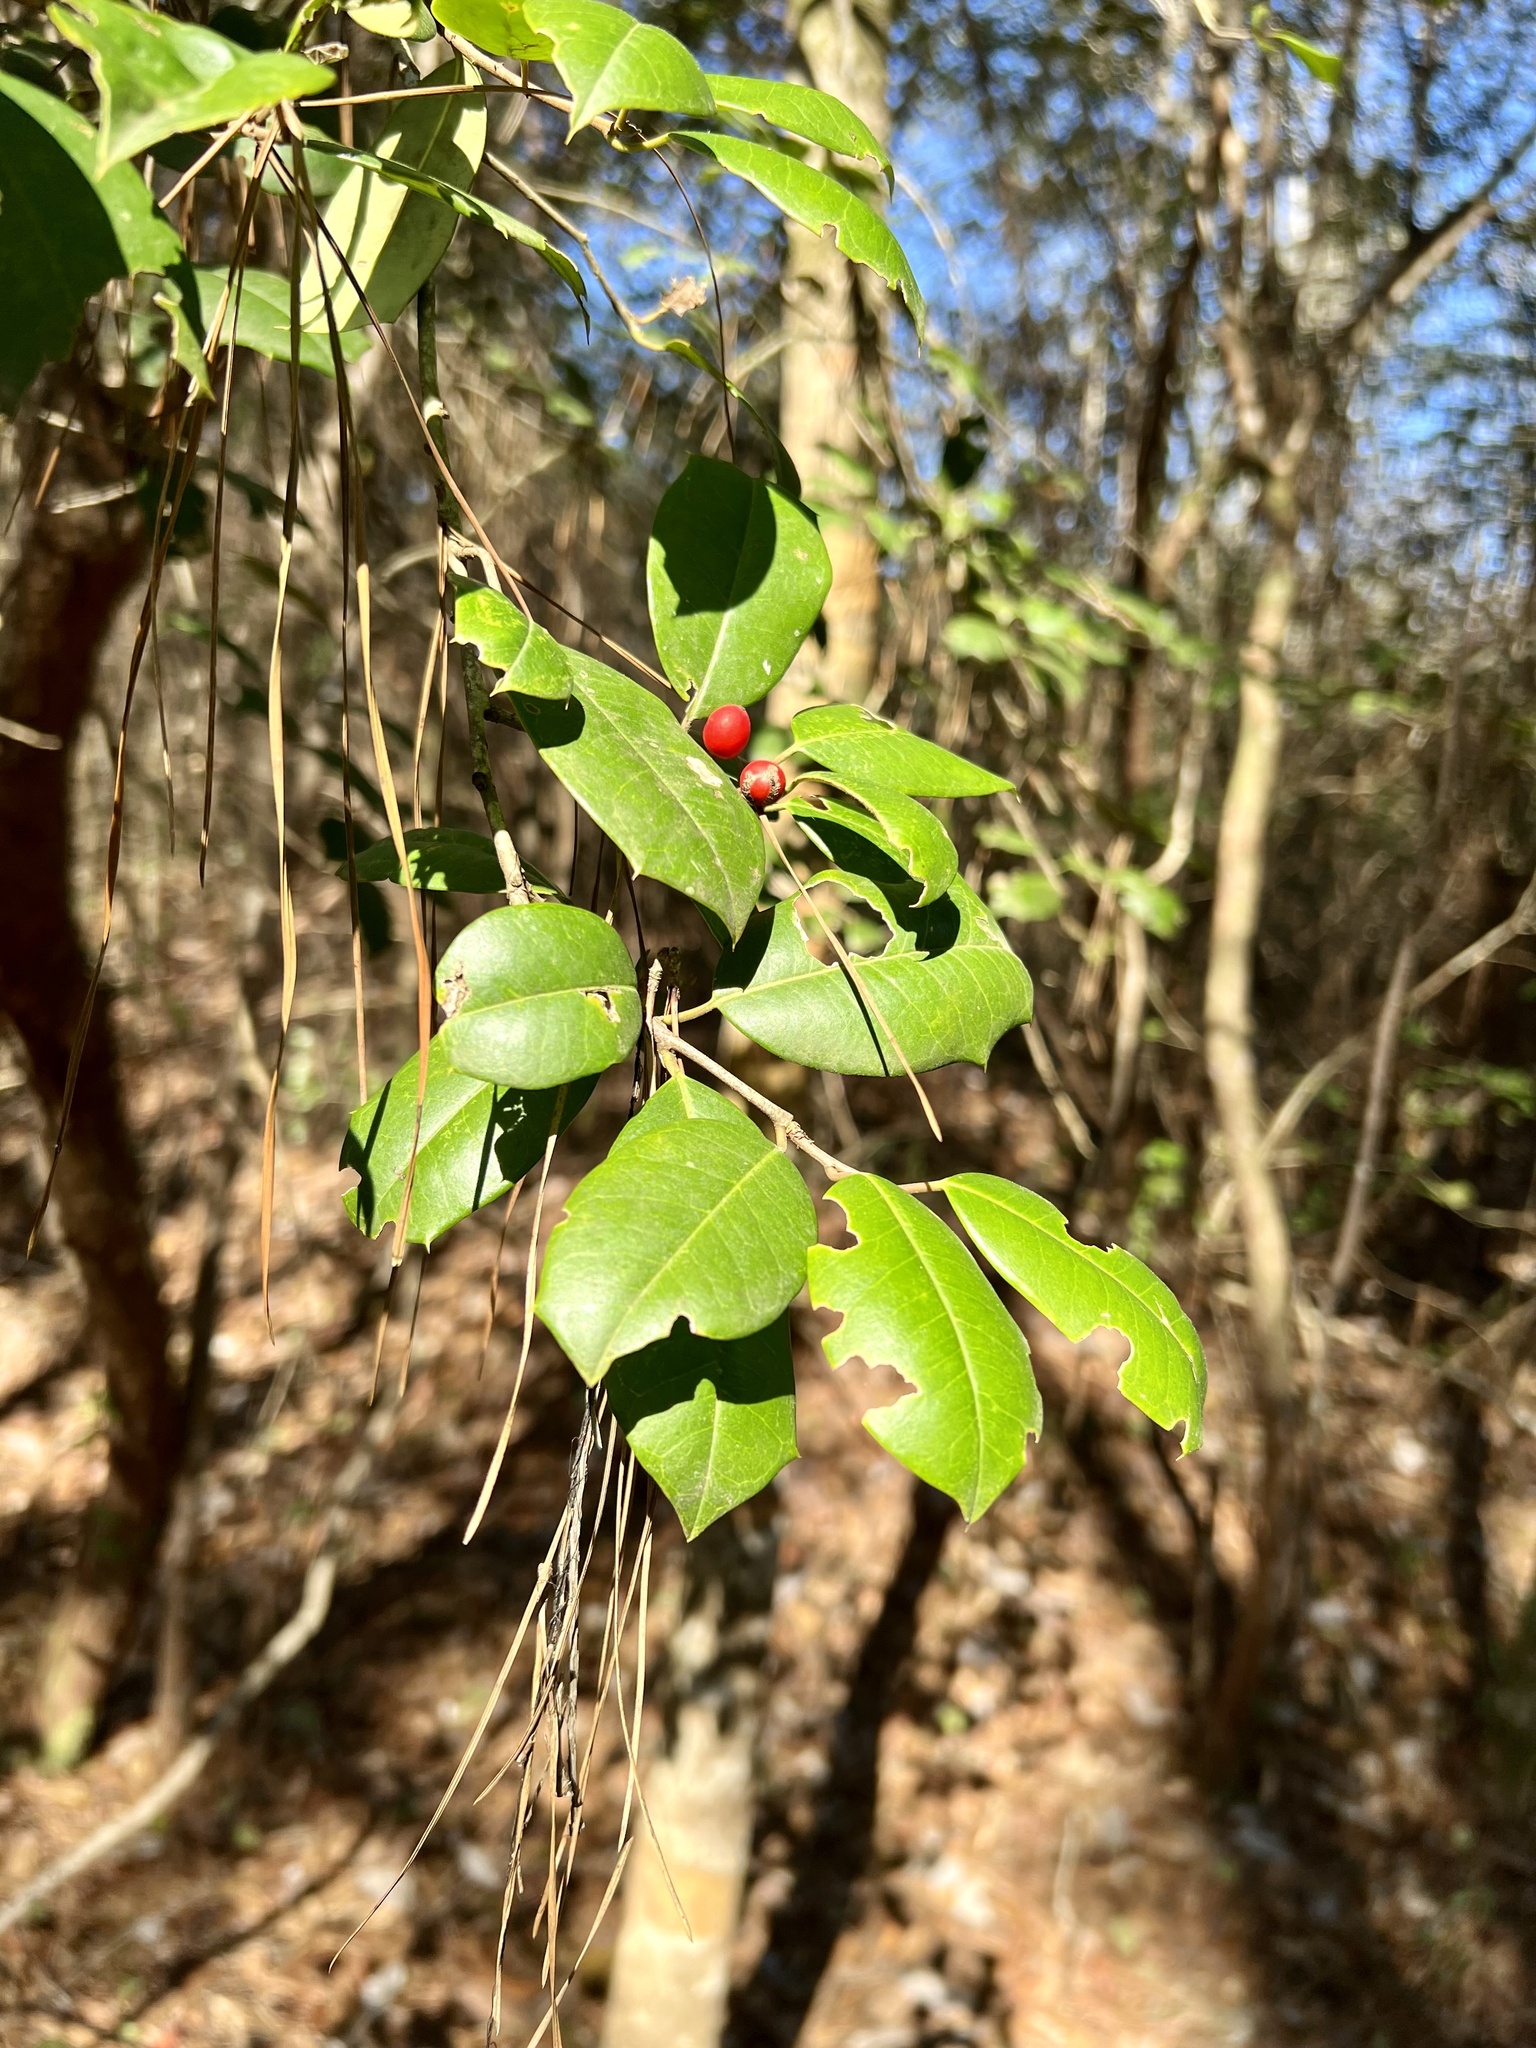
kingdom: Plantae
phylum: Tracheophyta
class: Magnoliopsida
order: Aquifoliales
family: Aquifoliaceae
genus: Ilex
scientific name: Ilex opaca
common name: American holly
